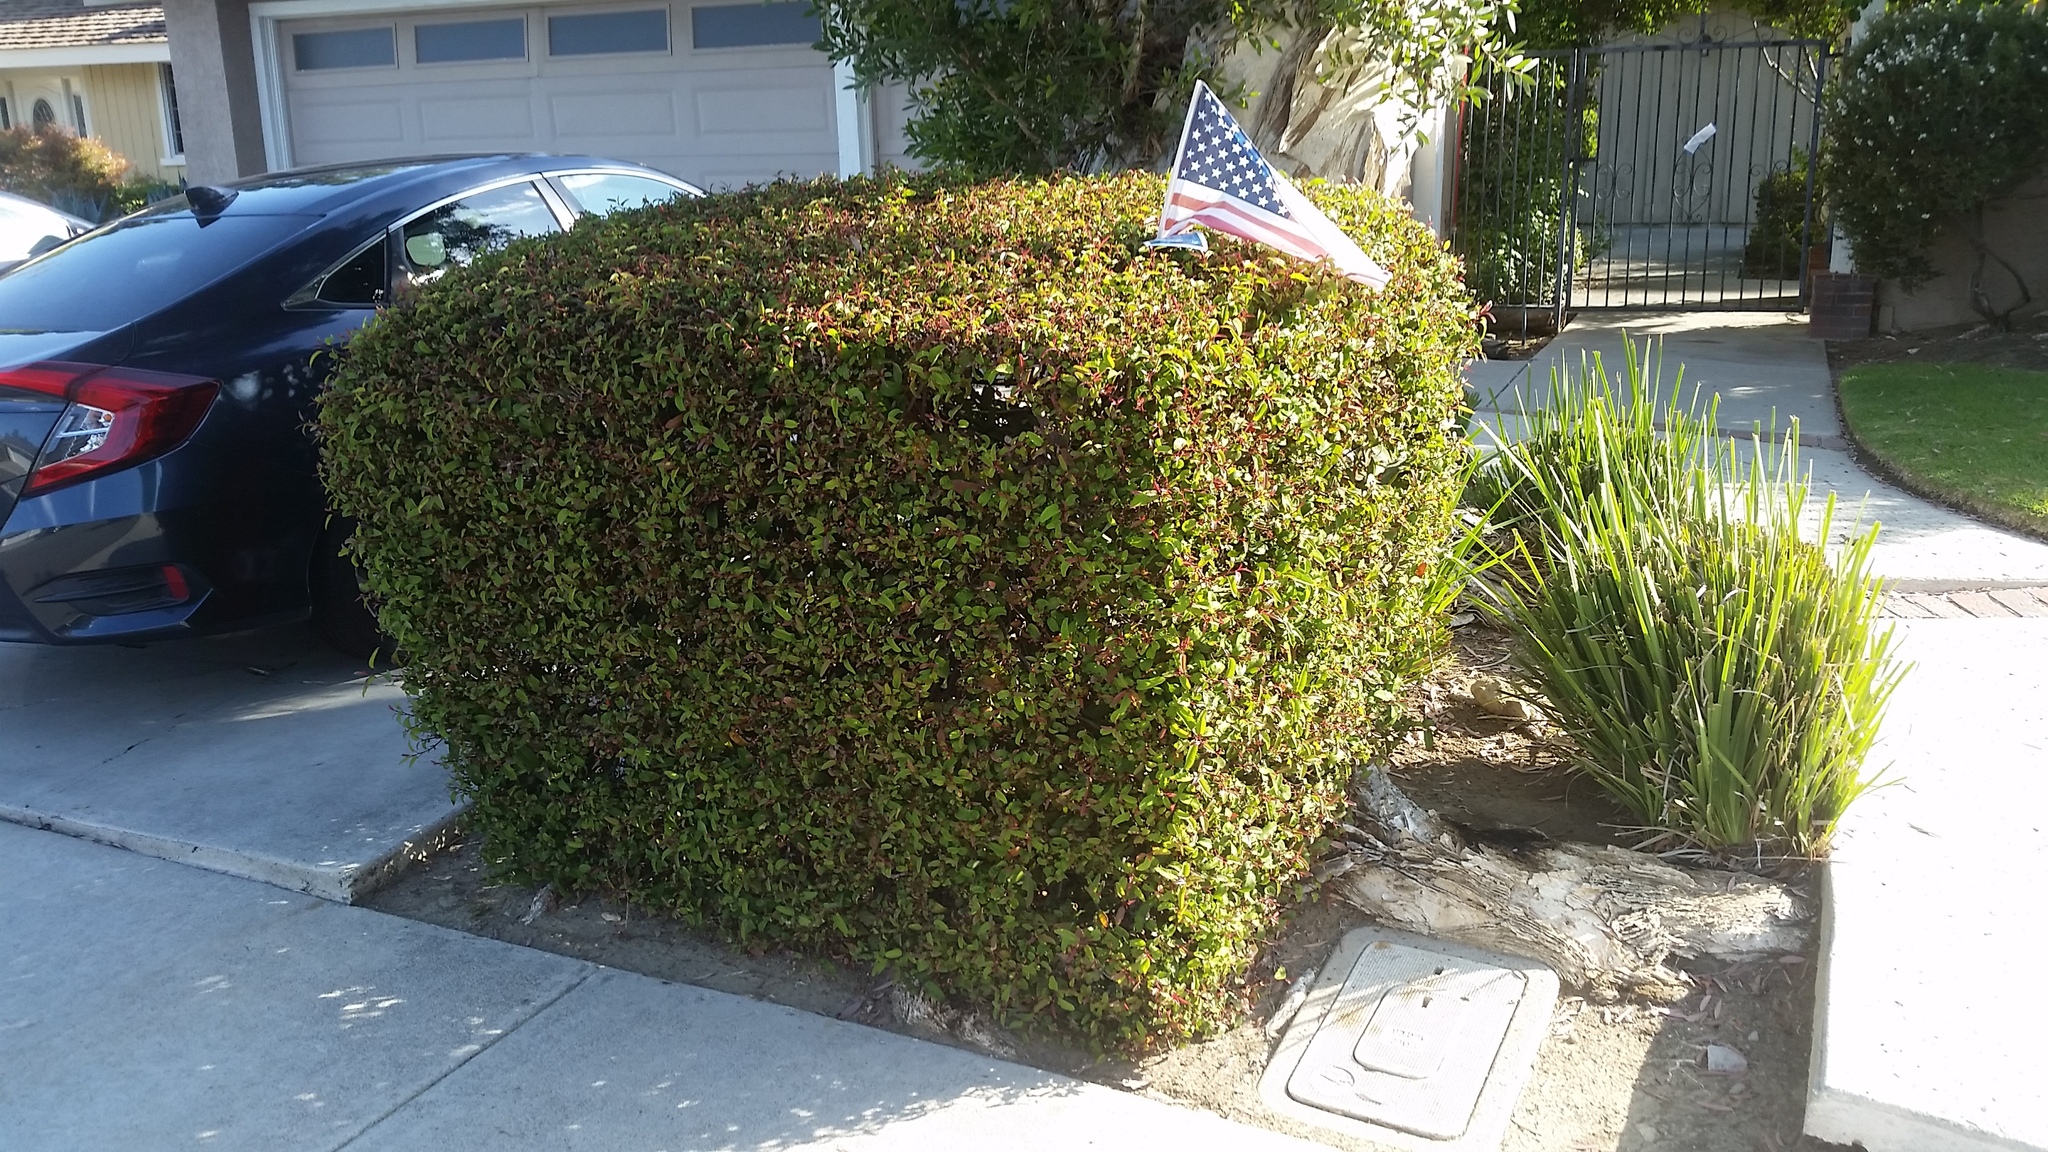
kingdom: Plantae
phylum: Tracheophyta
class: Magnoliopsida
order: Sapindales
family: Anacardiaceae
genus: Malosma
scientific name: Malosma laurina
